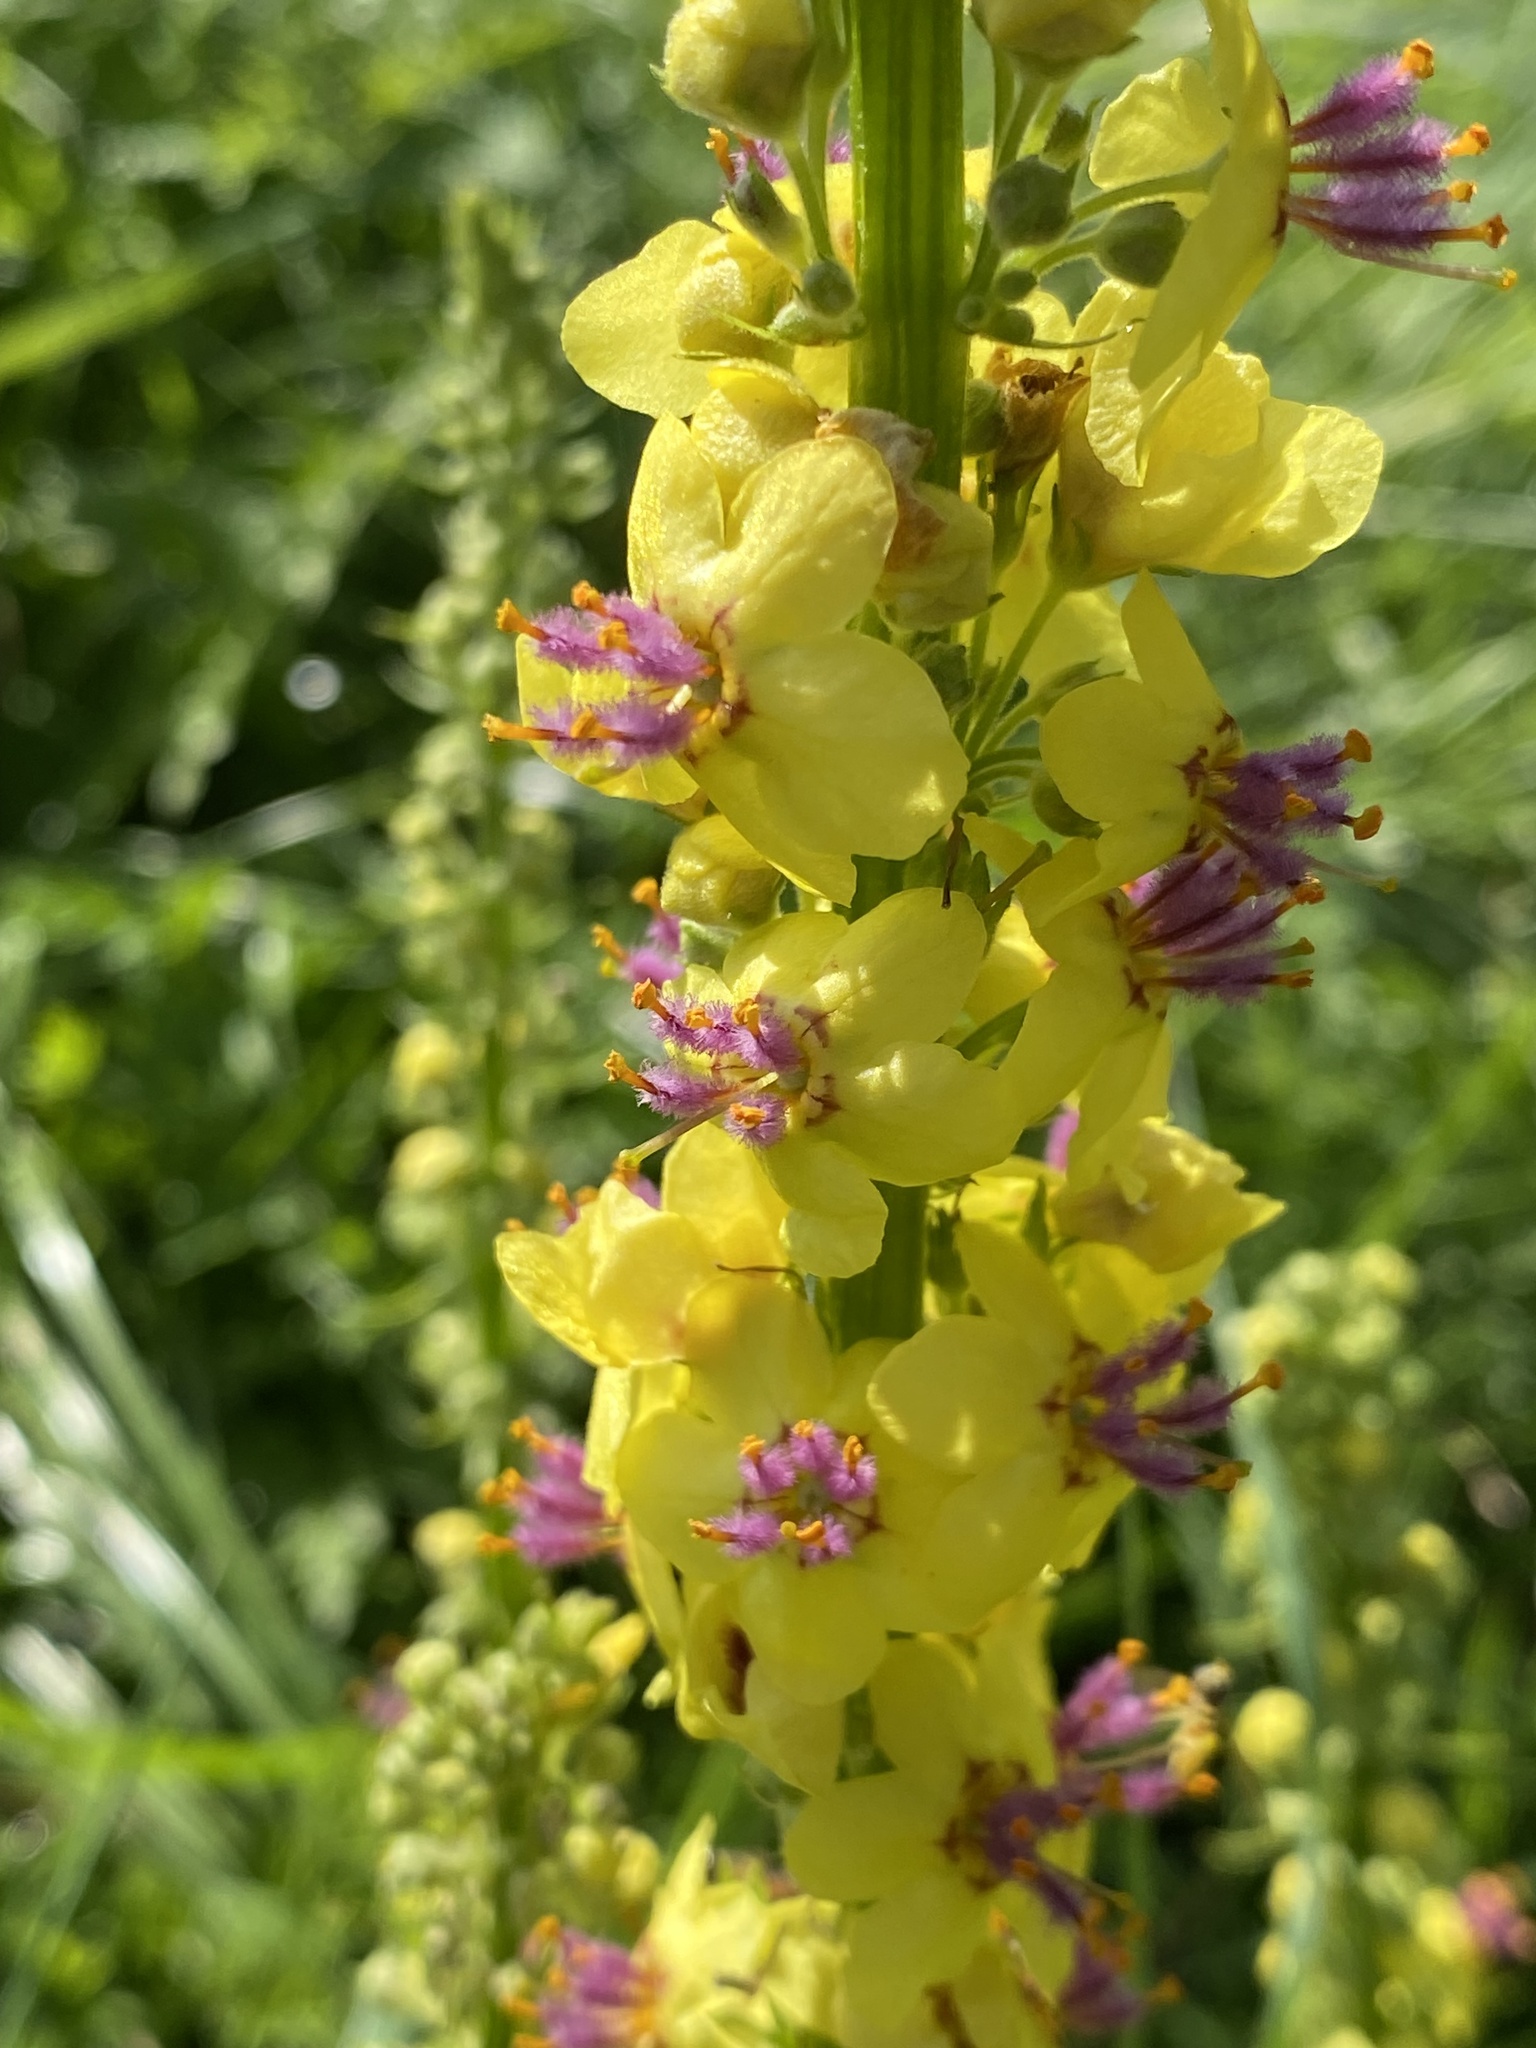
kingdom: Plantae
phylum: Tracheophyta
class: Magnoliopsida
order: Lamiales
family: Scrophulariaceae
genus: Verbascum
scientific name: Verbascum nigrum
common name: Dark mullein
